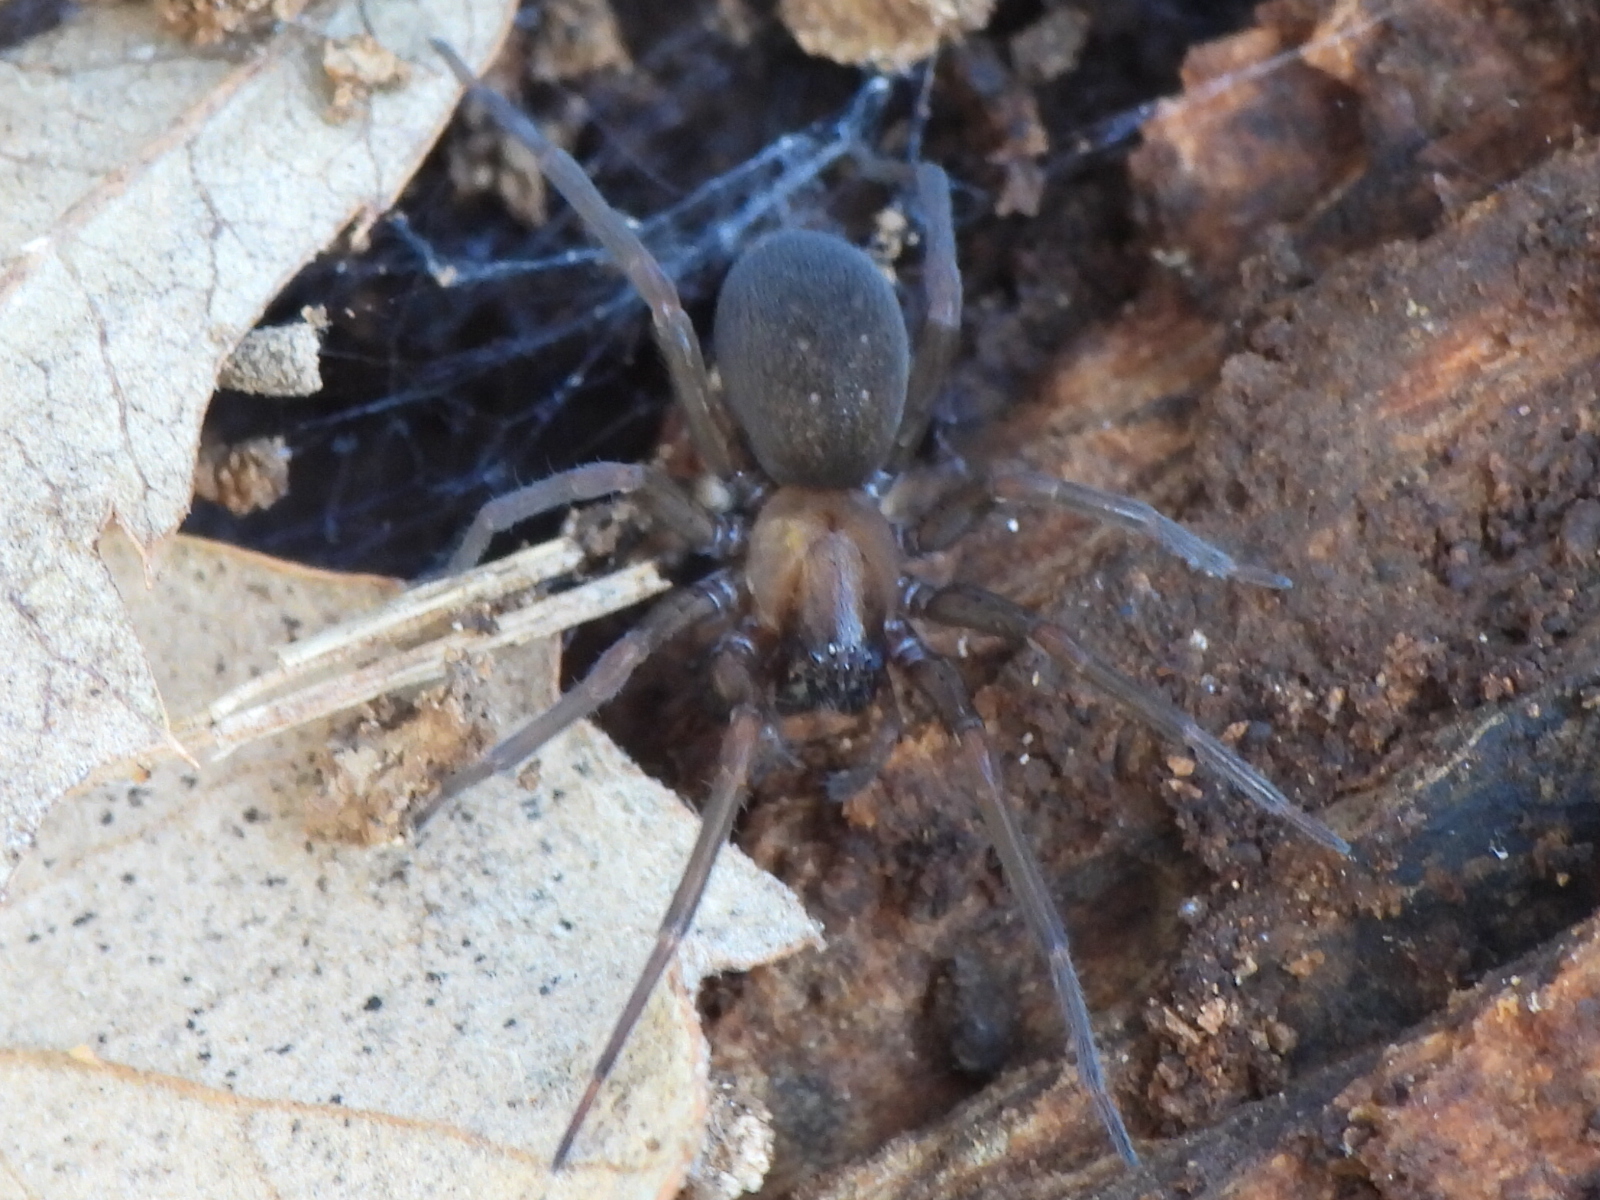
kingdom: Animalia
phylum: Arthropoda
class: Arachnida
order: Araneae
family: Desidae
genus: Metaltella
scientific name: Metaltella simoni
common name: Cribellate spider
